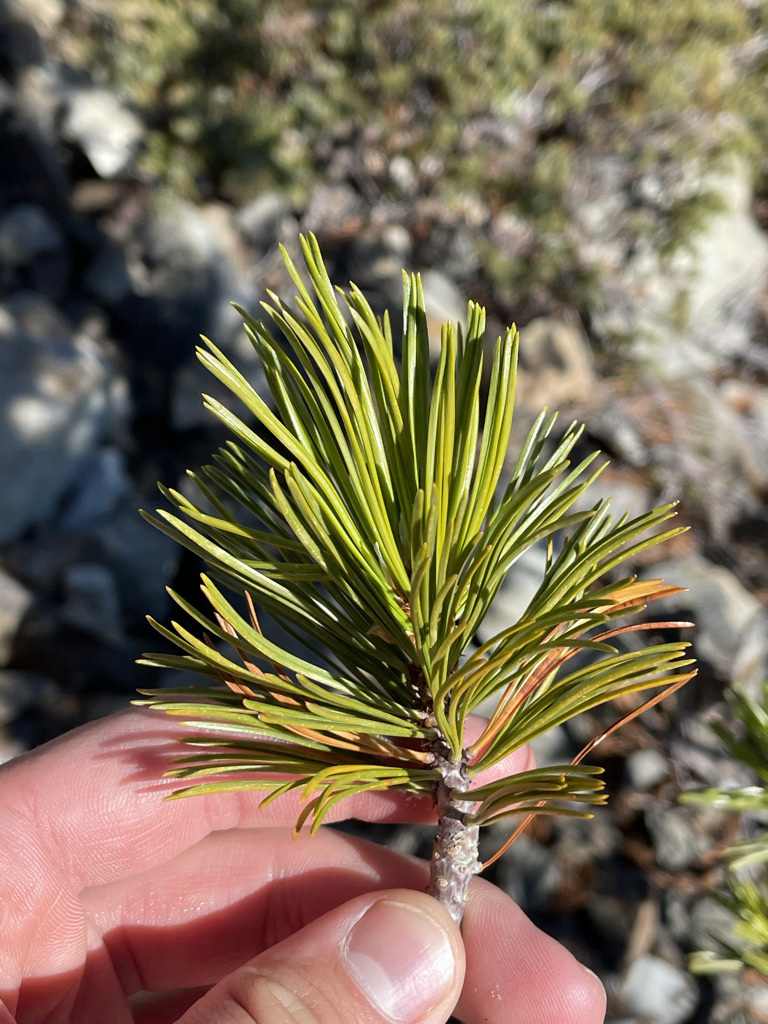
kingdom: Plantae
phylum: Tracheophyta
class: Pinopsida
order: Pinales
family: Pinaceae
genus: Pinus
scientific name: Pinus albicaulis
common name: Whitebark pine
